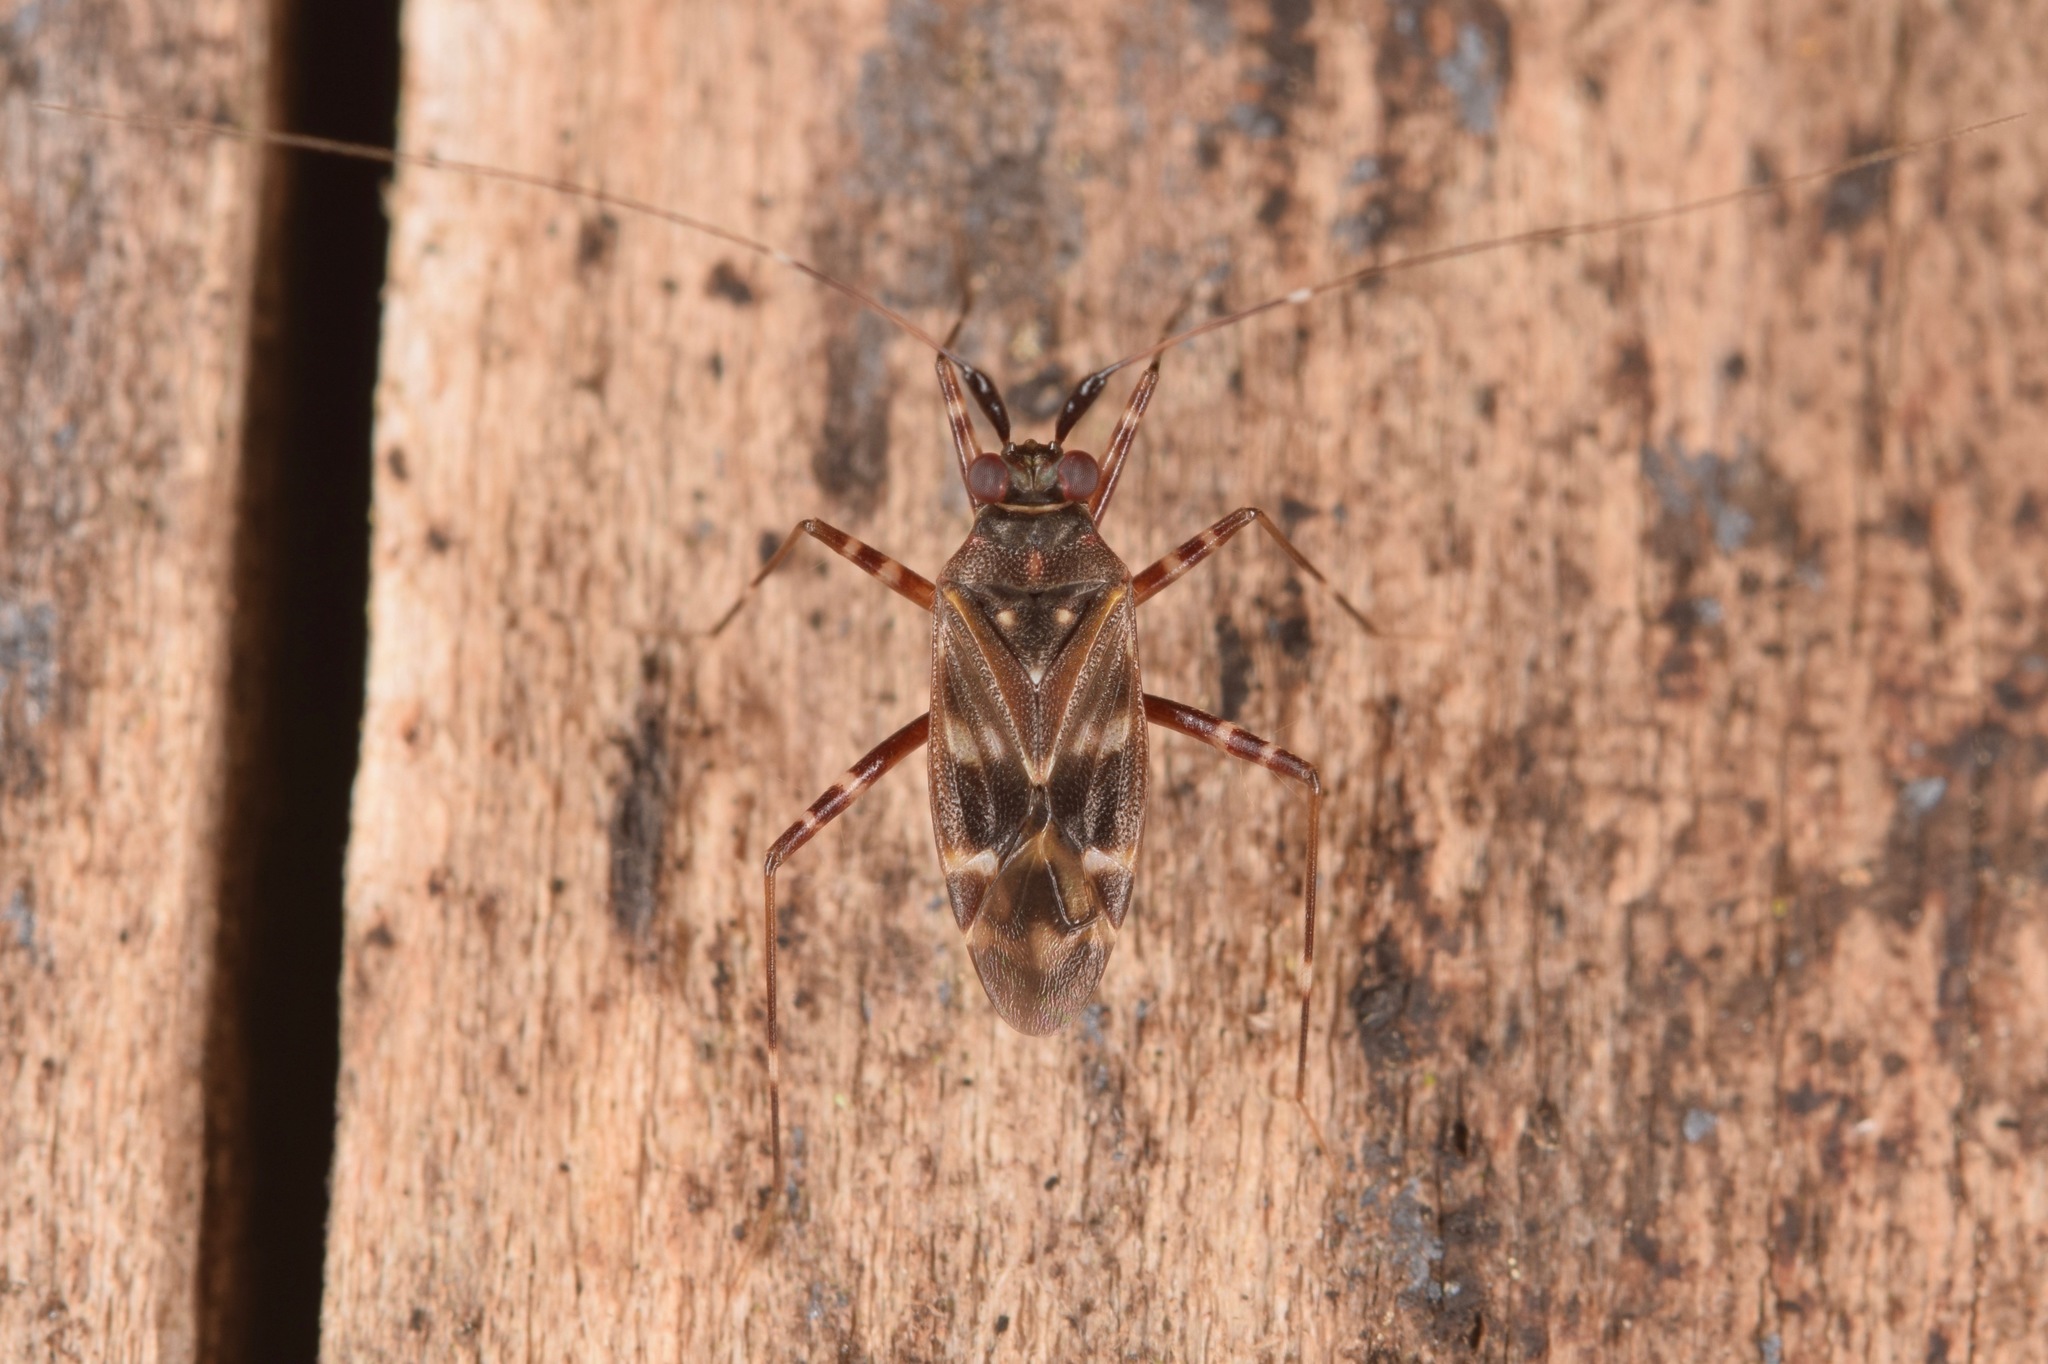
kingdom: Animalia
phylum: Arthropoda
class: Insecta
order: Hemiptera
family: Miridae
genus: Cylapus
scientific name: Cylapus tenuicornis
